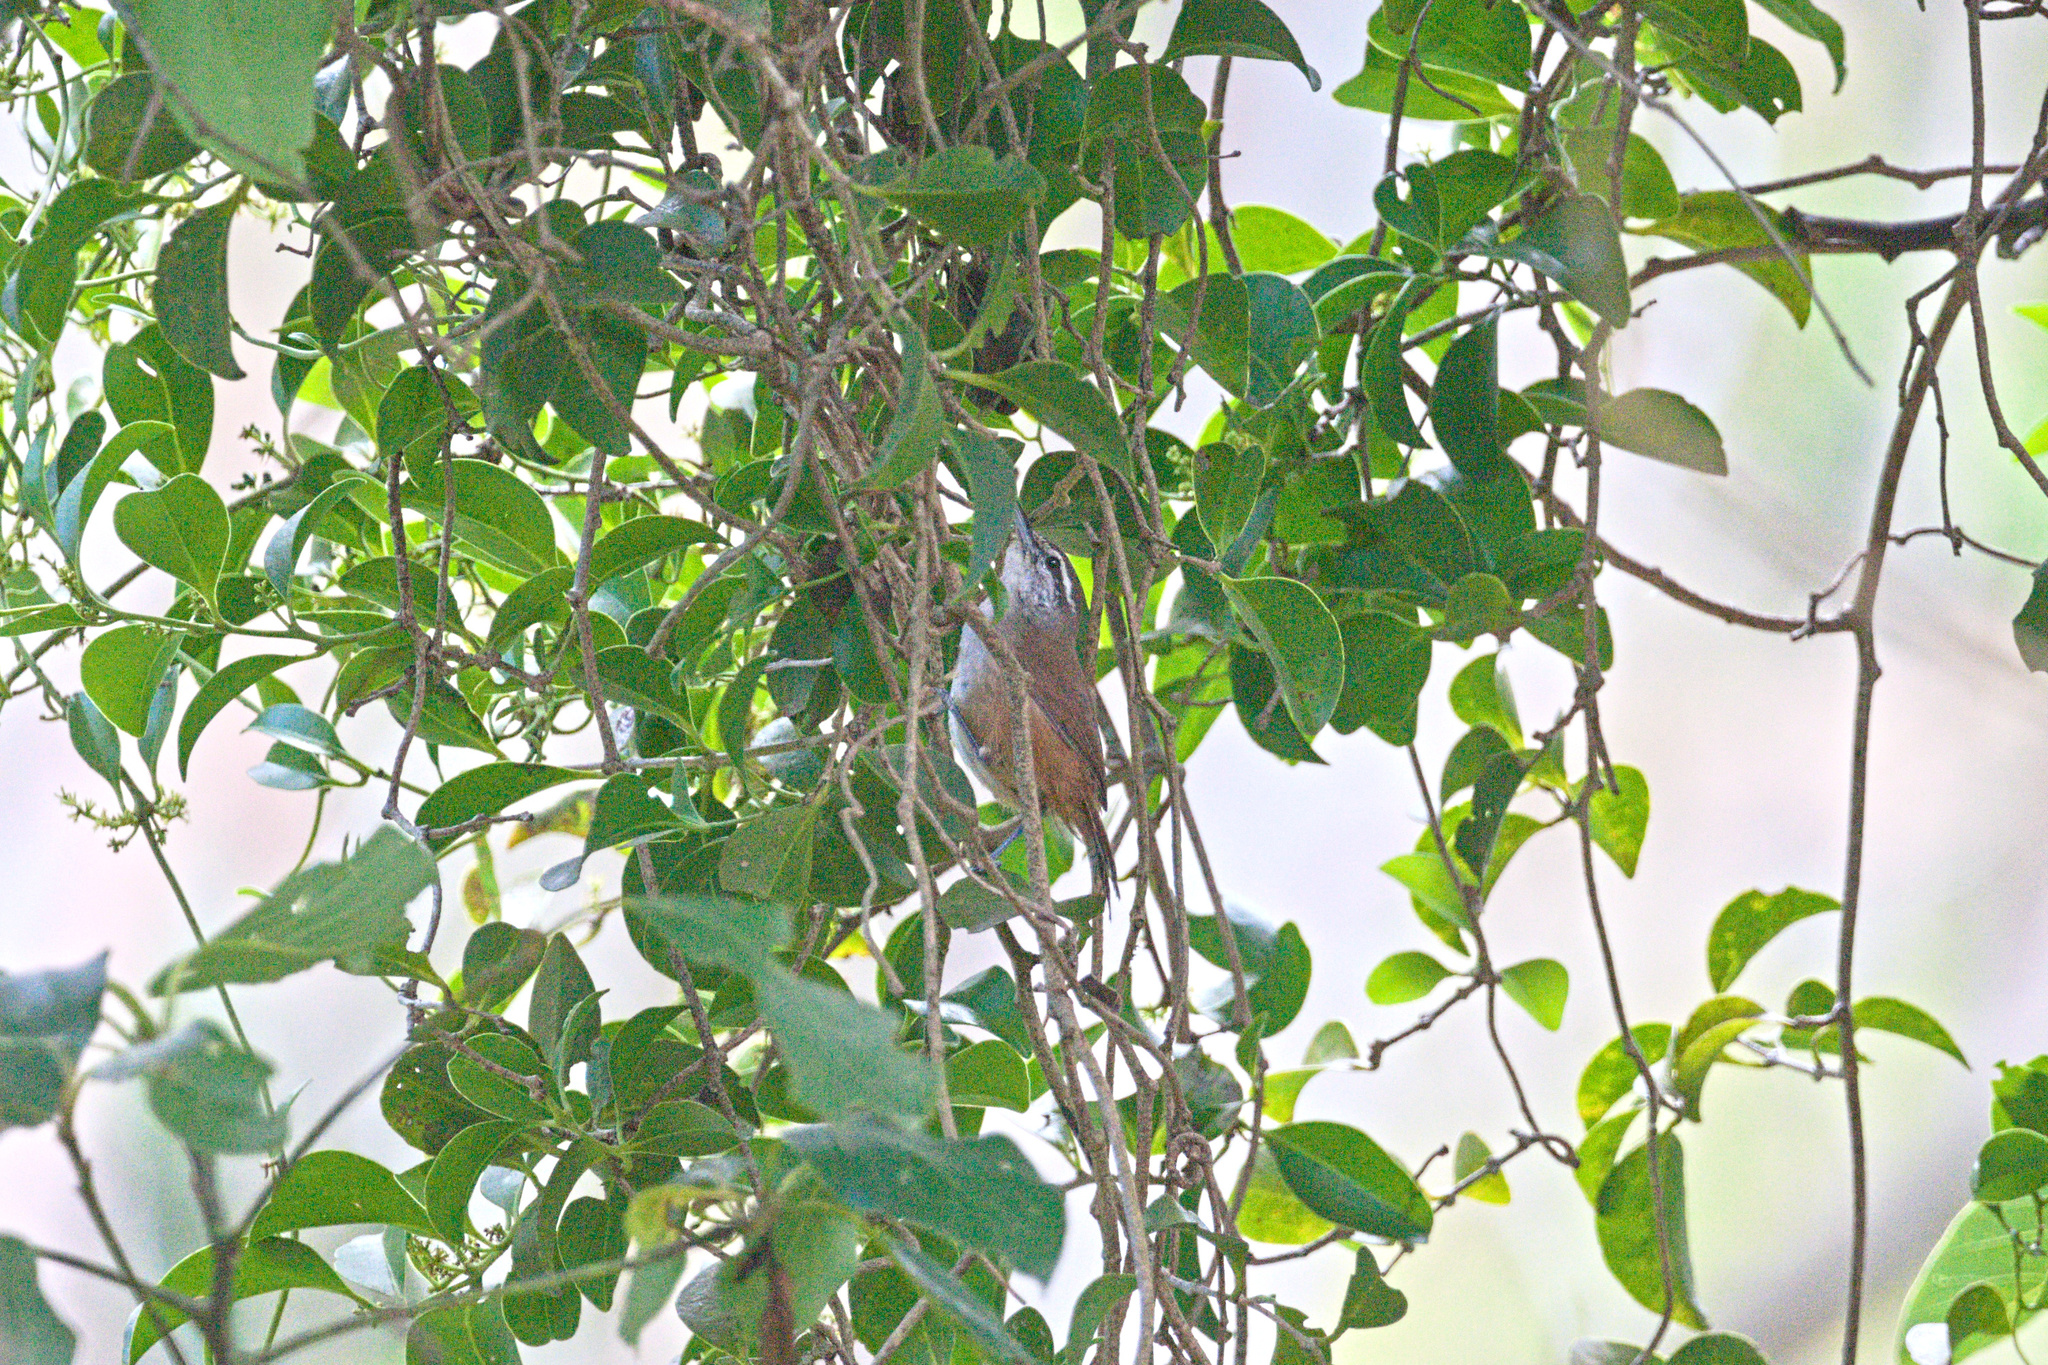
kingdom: Animalia
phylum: Chordata
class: Aves
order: Passeriformes
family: Troglodytidae
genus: Cantorchilus
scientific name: Cantorchilus modestus
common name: Cabanis's wren
